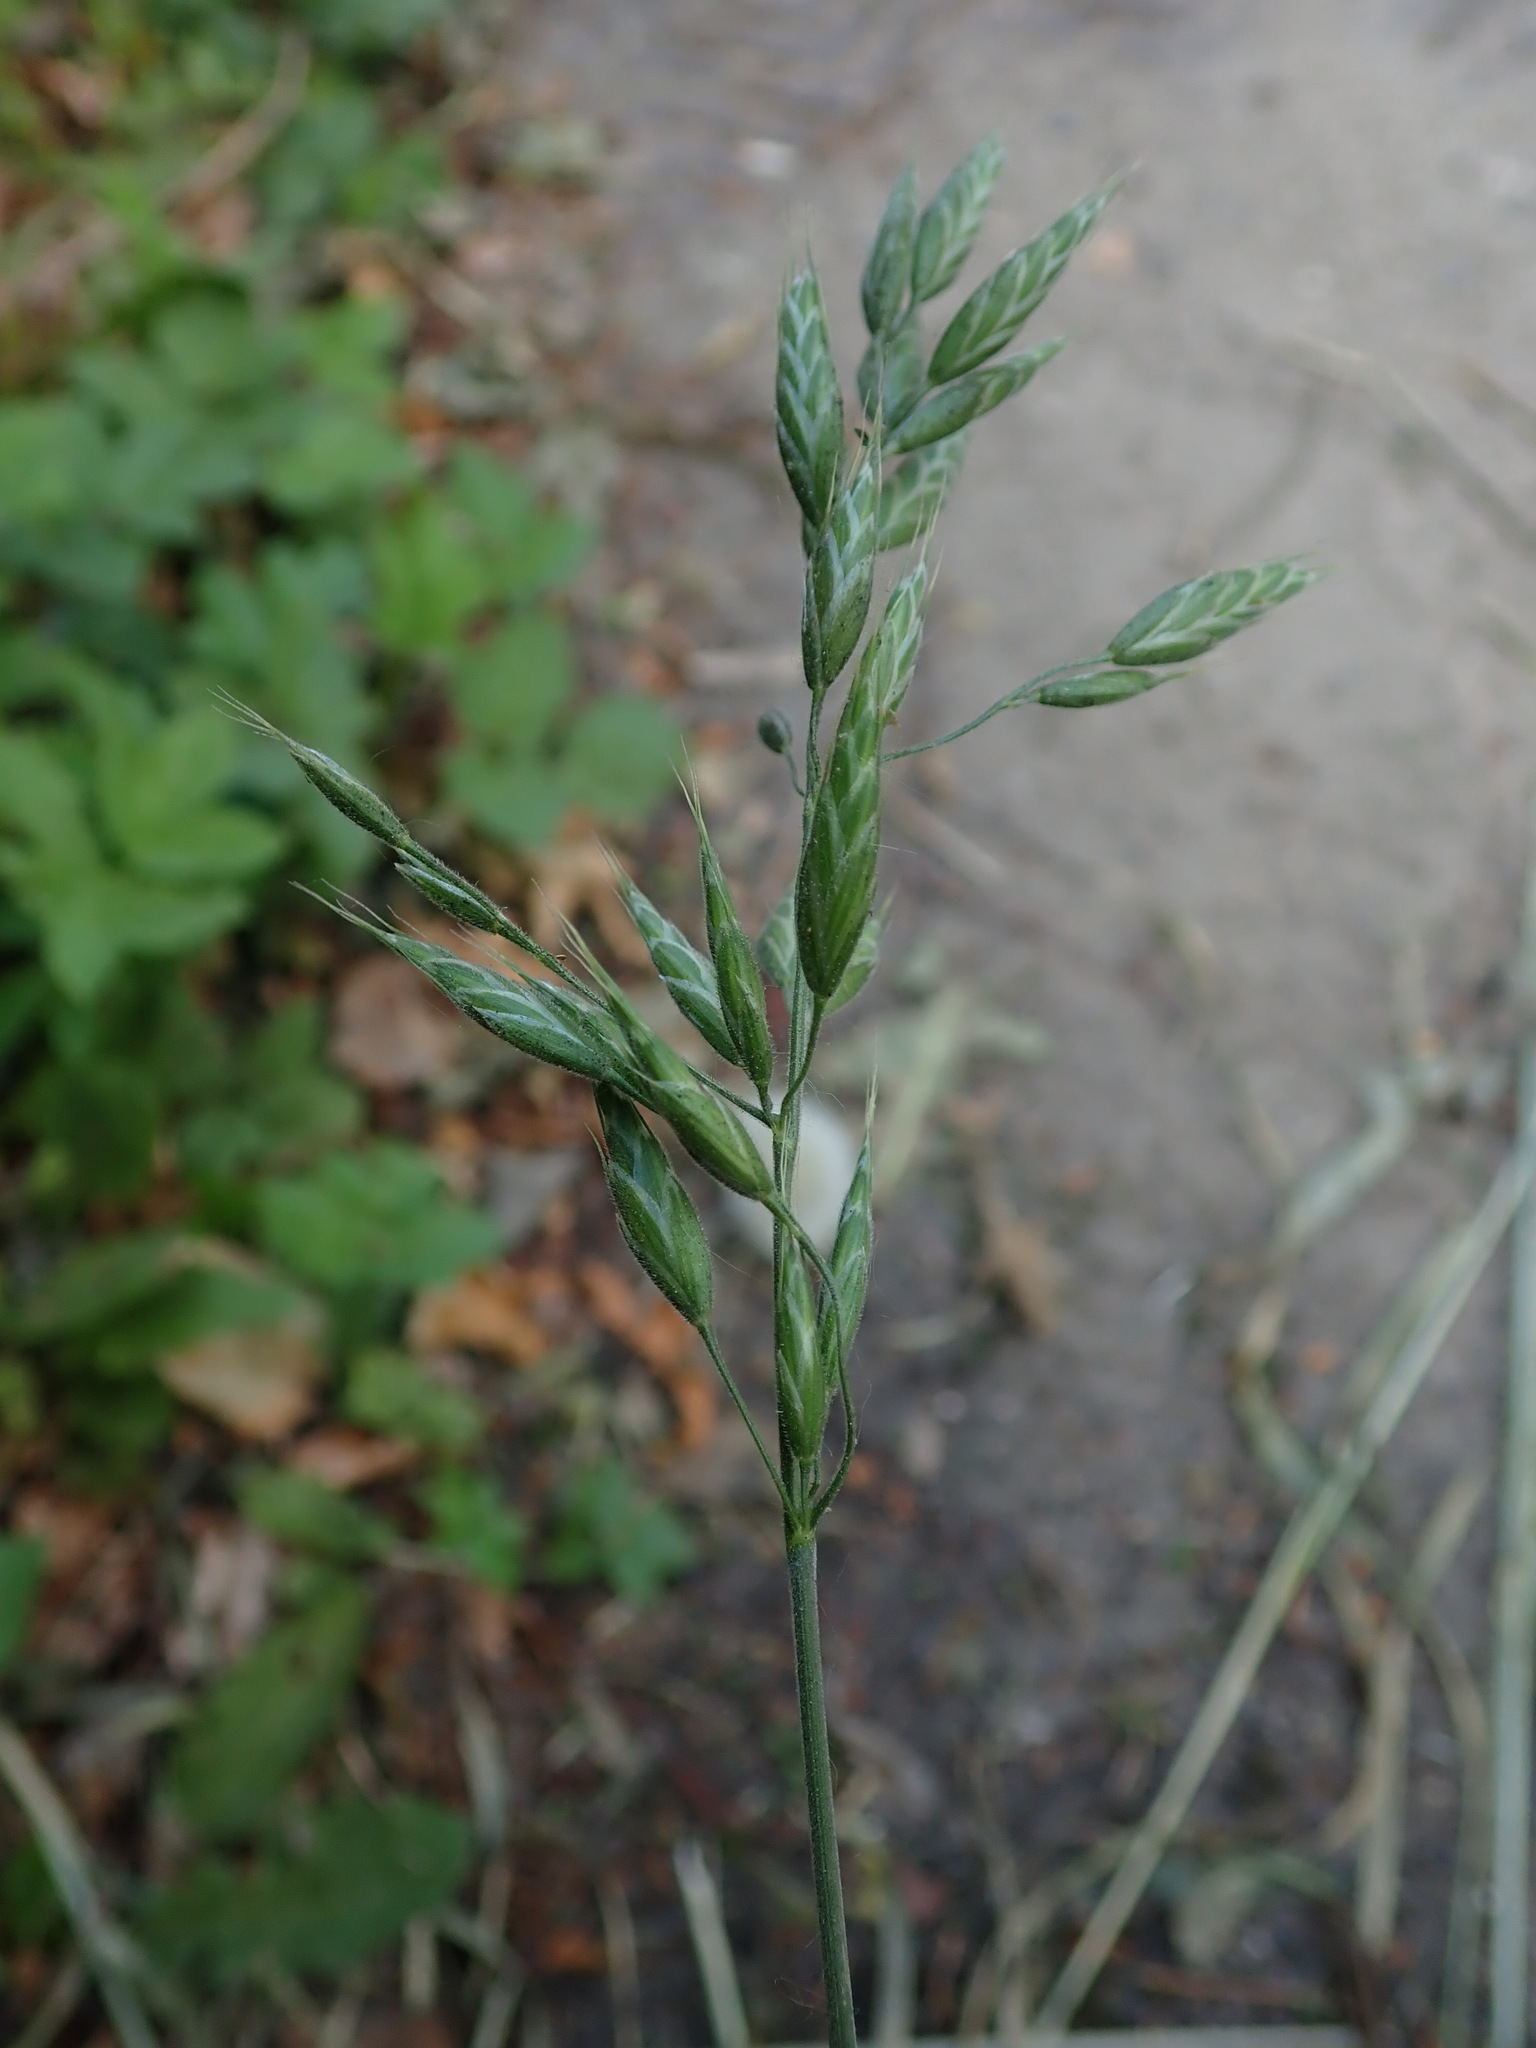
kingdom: Plantae
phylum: Tracheophyta
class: Liliopsida
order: Poales
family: Poaceae
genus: Bromus
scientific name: Bromus hordeaceus
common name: Soft brome
